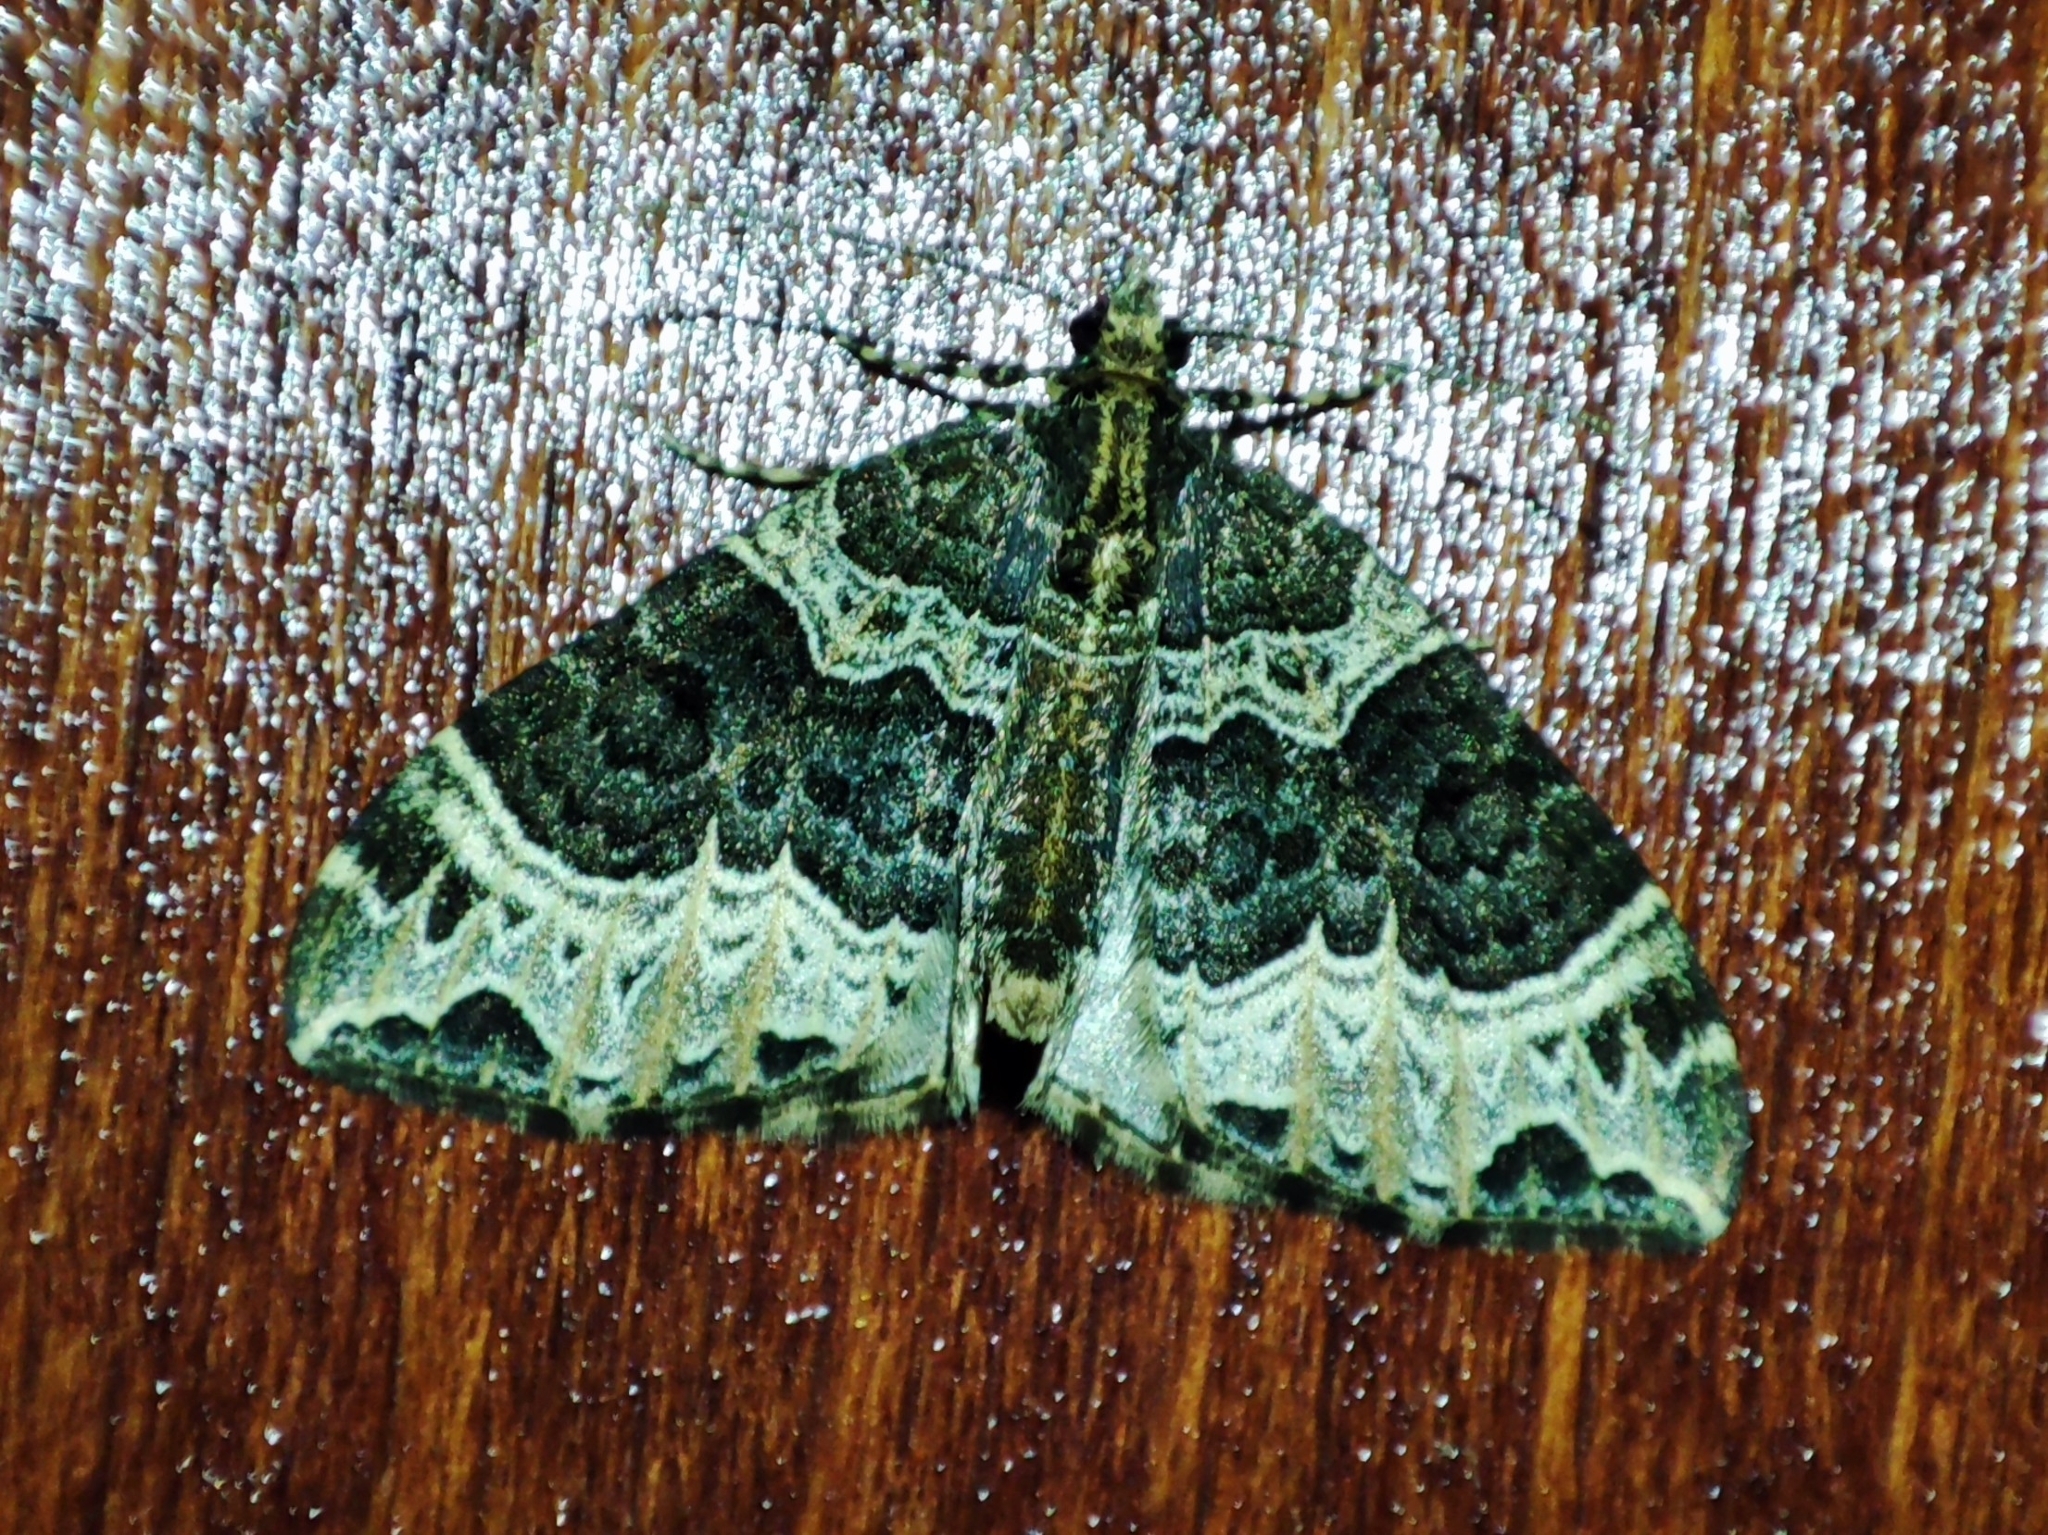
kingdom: Animalia
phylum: Arthropoda
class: Insecta
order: Lepidoptera
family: Geometridae
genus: Ecliptopera
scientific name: Ecliptopera silaceata
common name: Small phoenix
